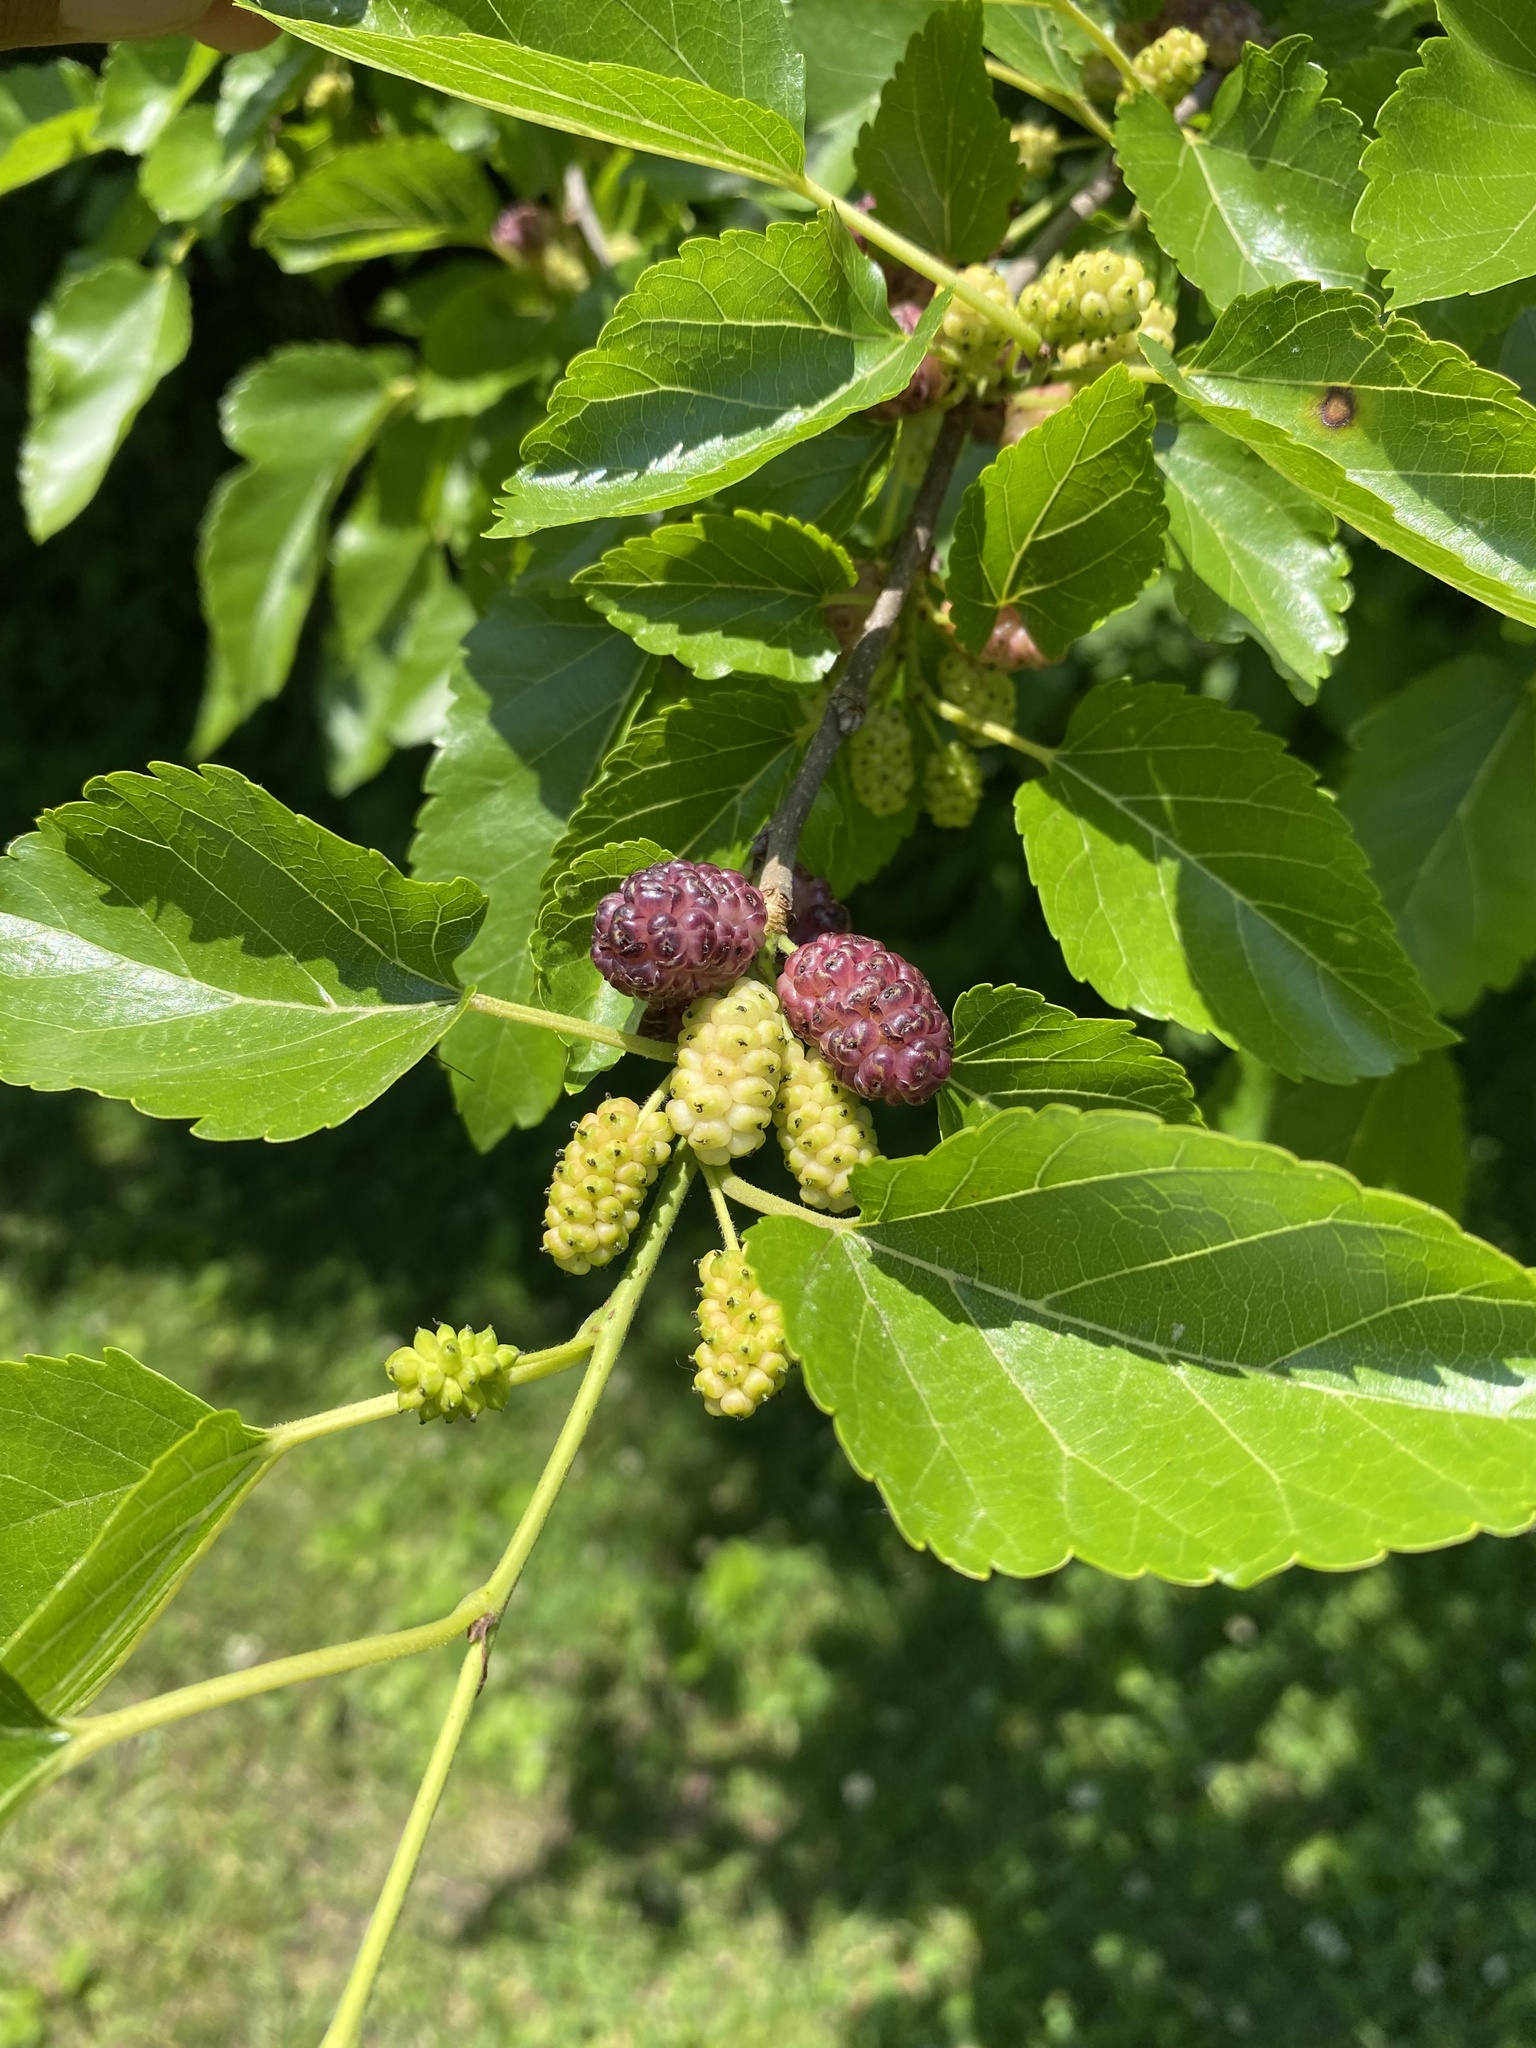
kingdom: Plantae
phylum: Tracheophyta
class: Magnoliopsida
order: Rosales
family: Moraceae
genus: Morus
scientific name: Morus alba
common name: White mulberry
